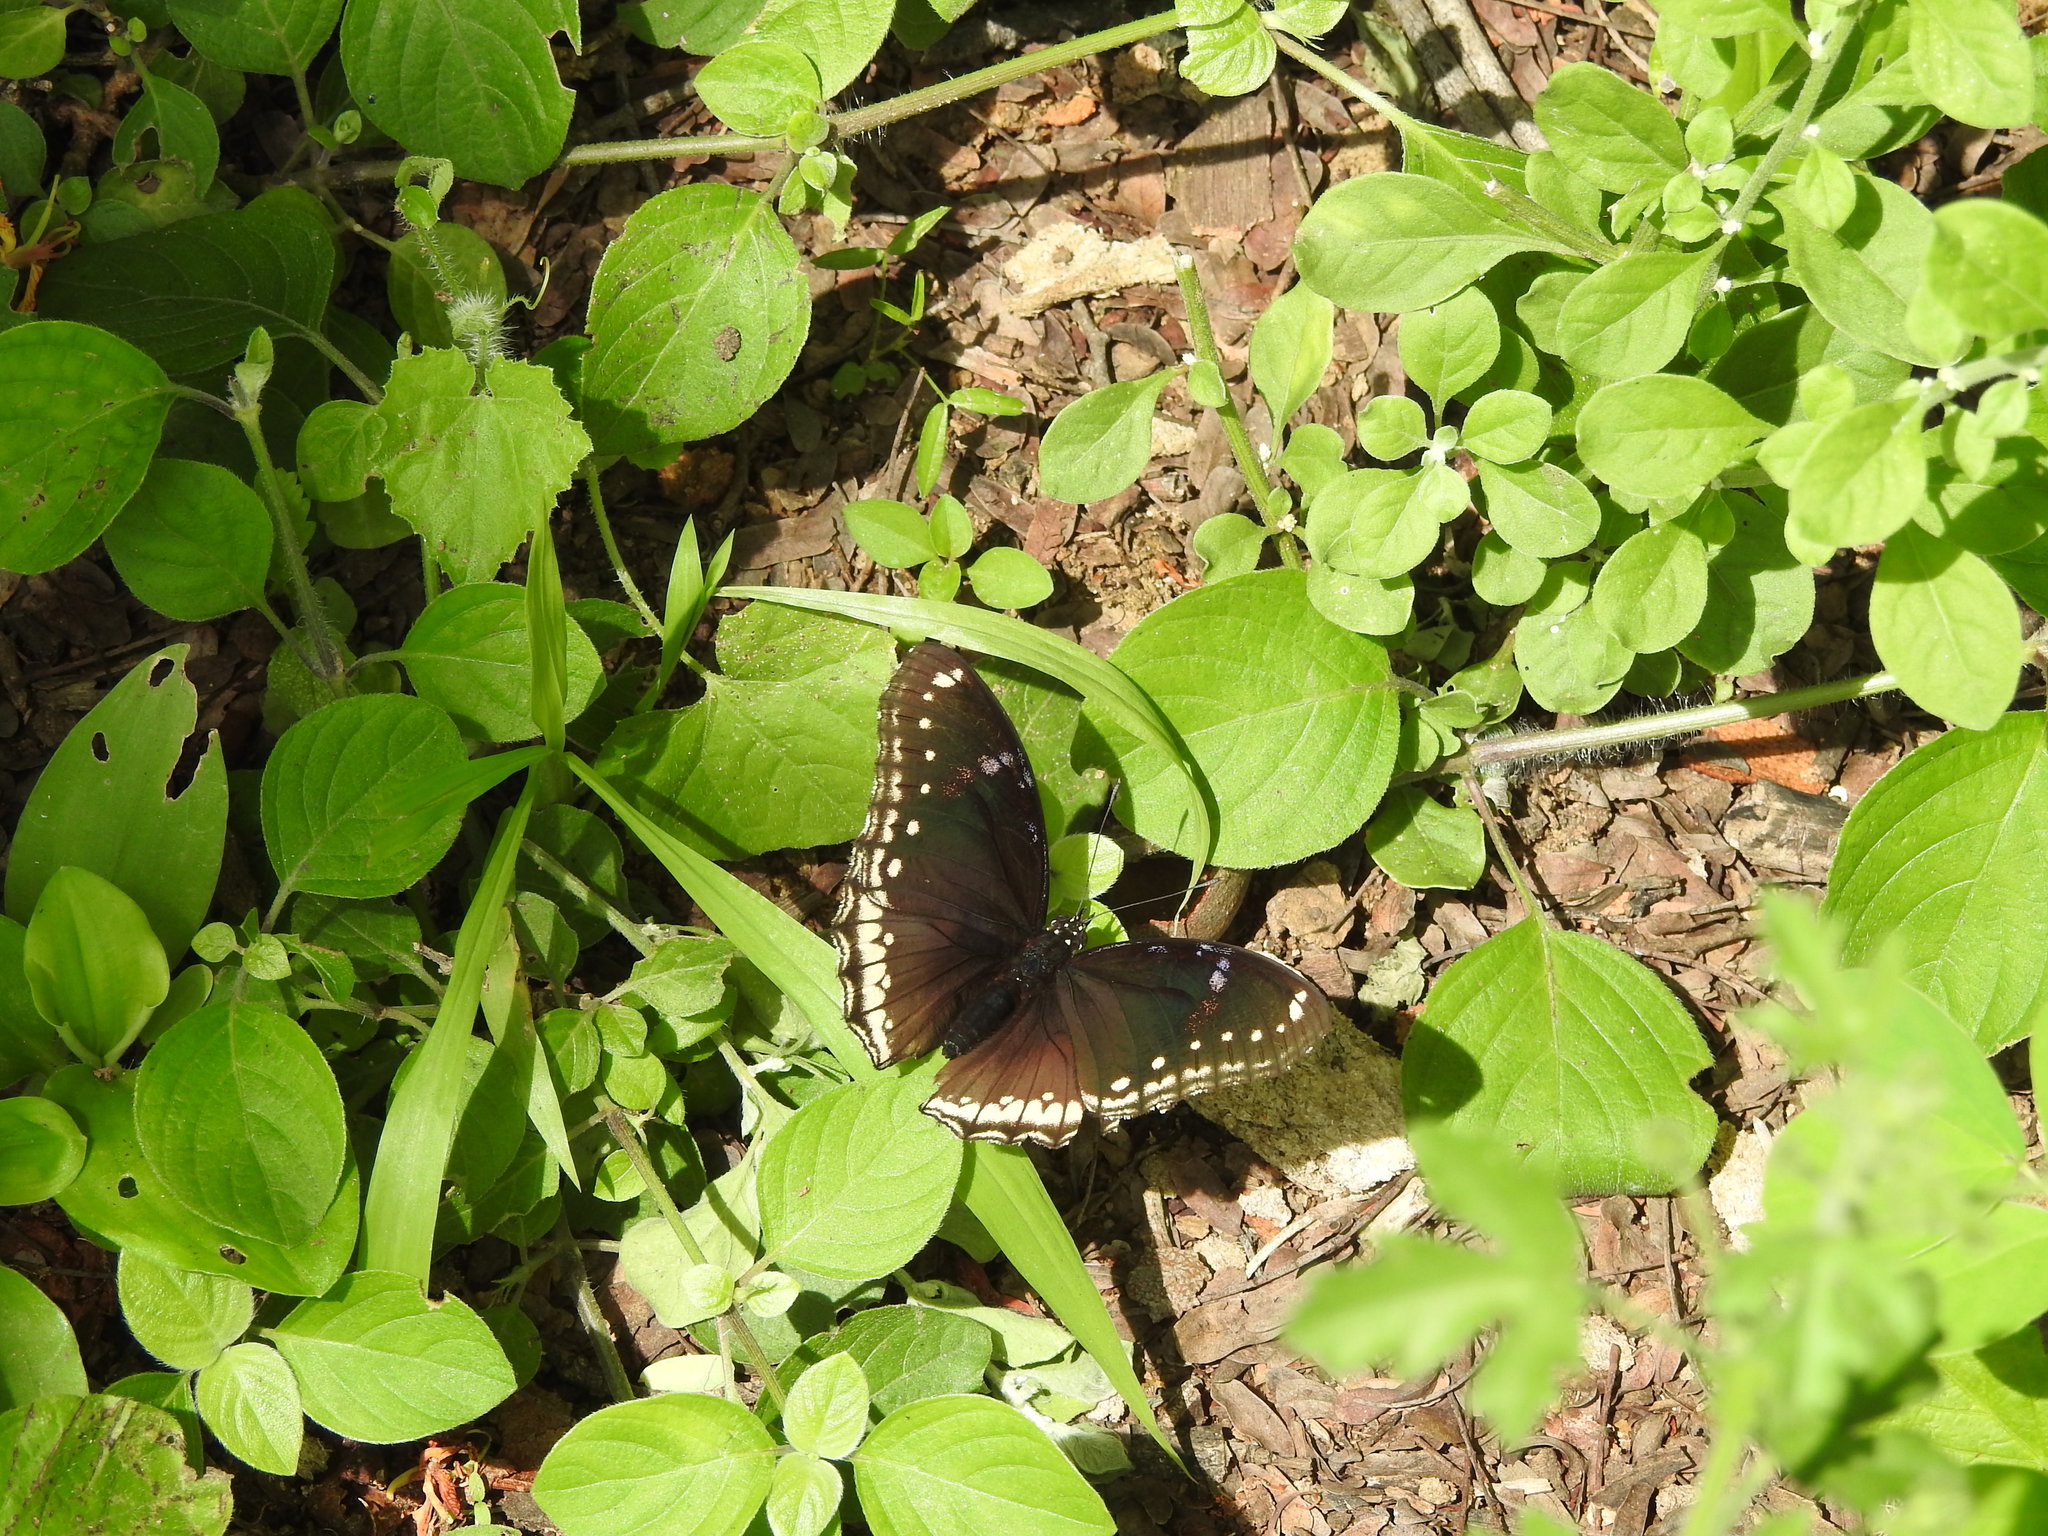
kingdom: Animalia
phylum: Arthropoda
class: Insecta
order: Lepidoptera
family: Nymphalidae
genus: Hypolimnas
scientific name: Hypolimnas bolina
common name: Great eggfly
